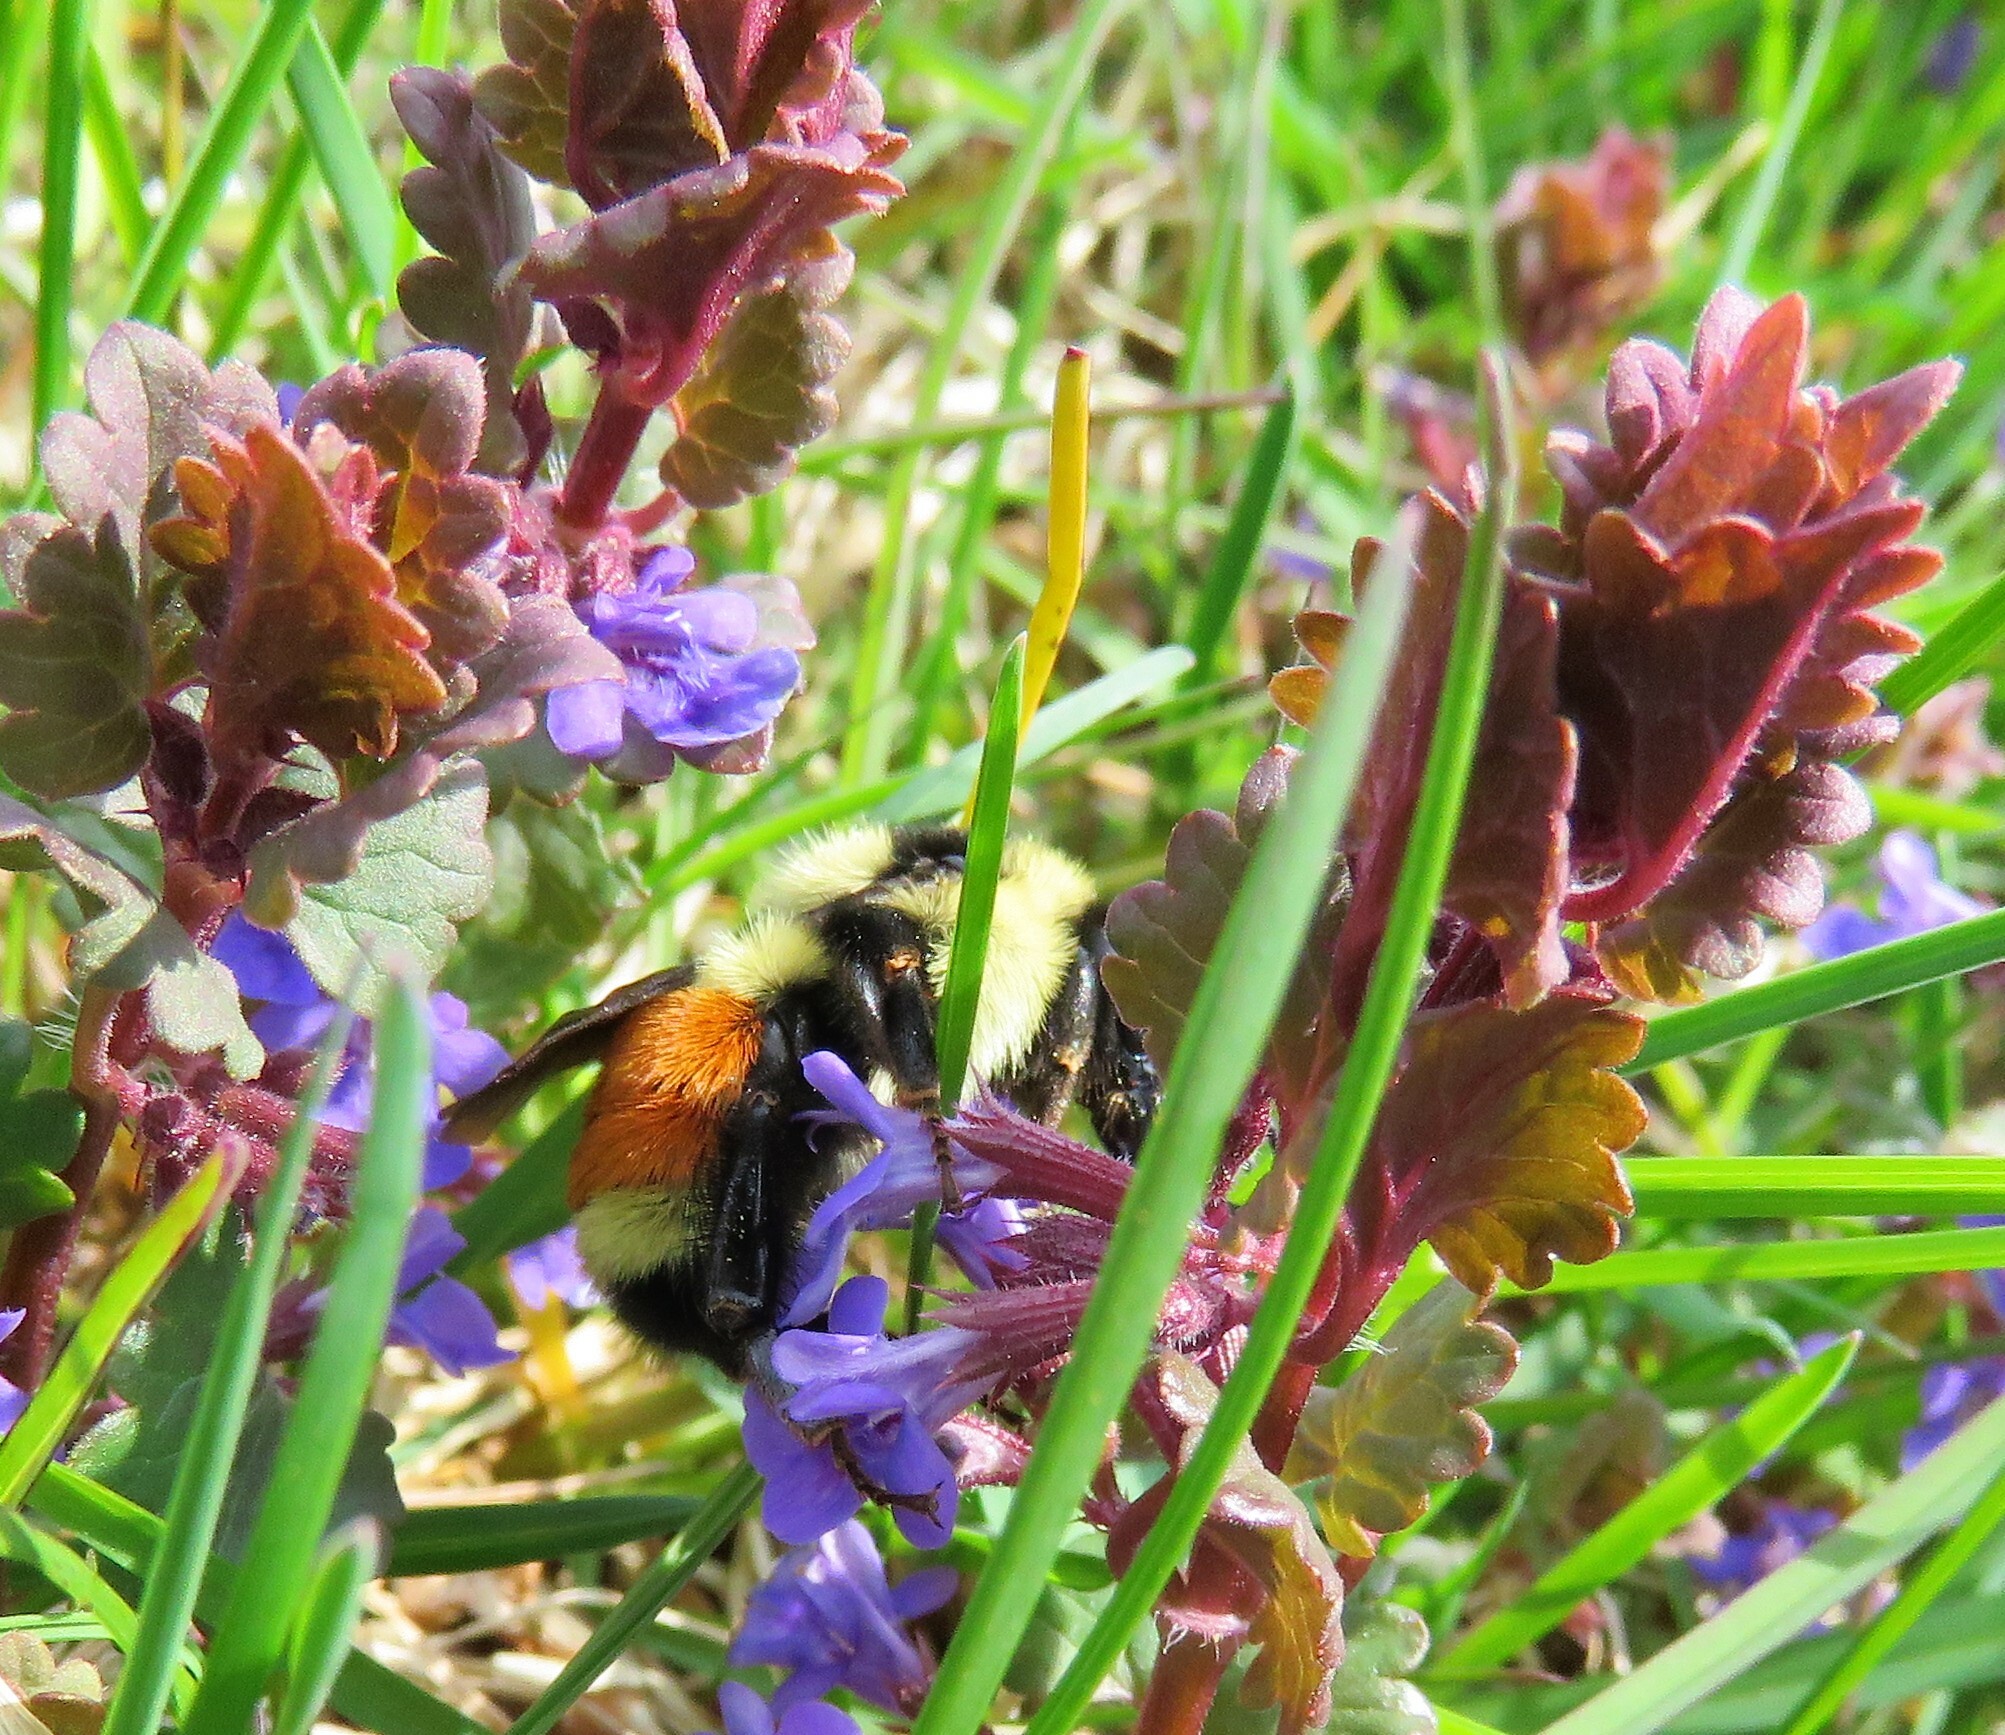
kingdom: Animalia
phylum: Arthropoda
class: Insecta
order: Hymenoptera
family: Apidae
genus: Bombus
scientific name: Bombus ternarius
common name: Tri-colored bumble bee
